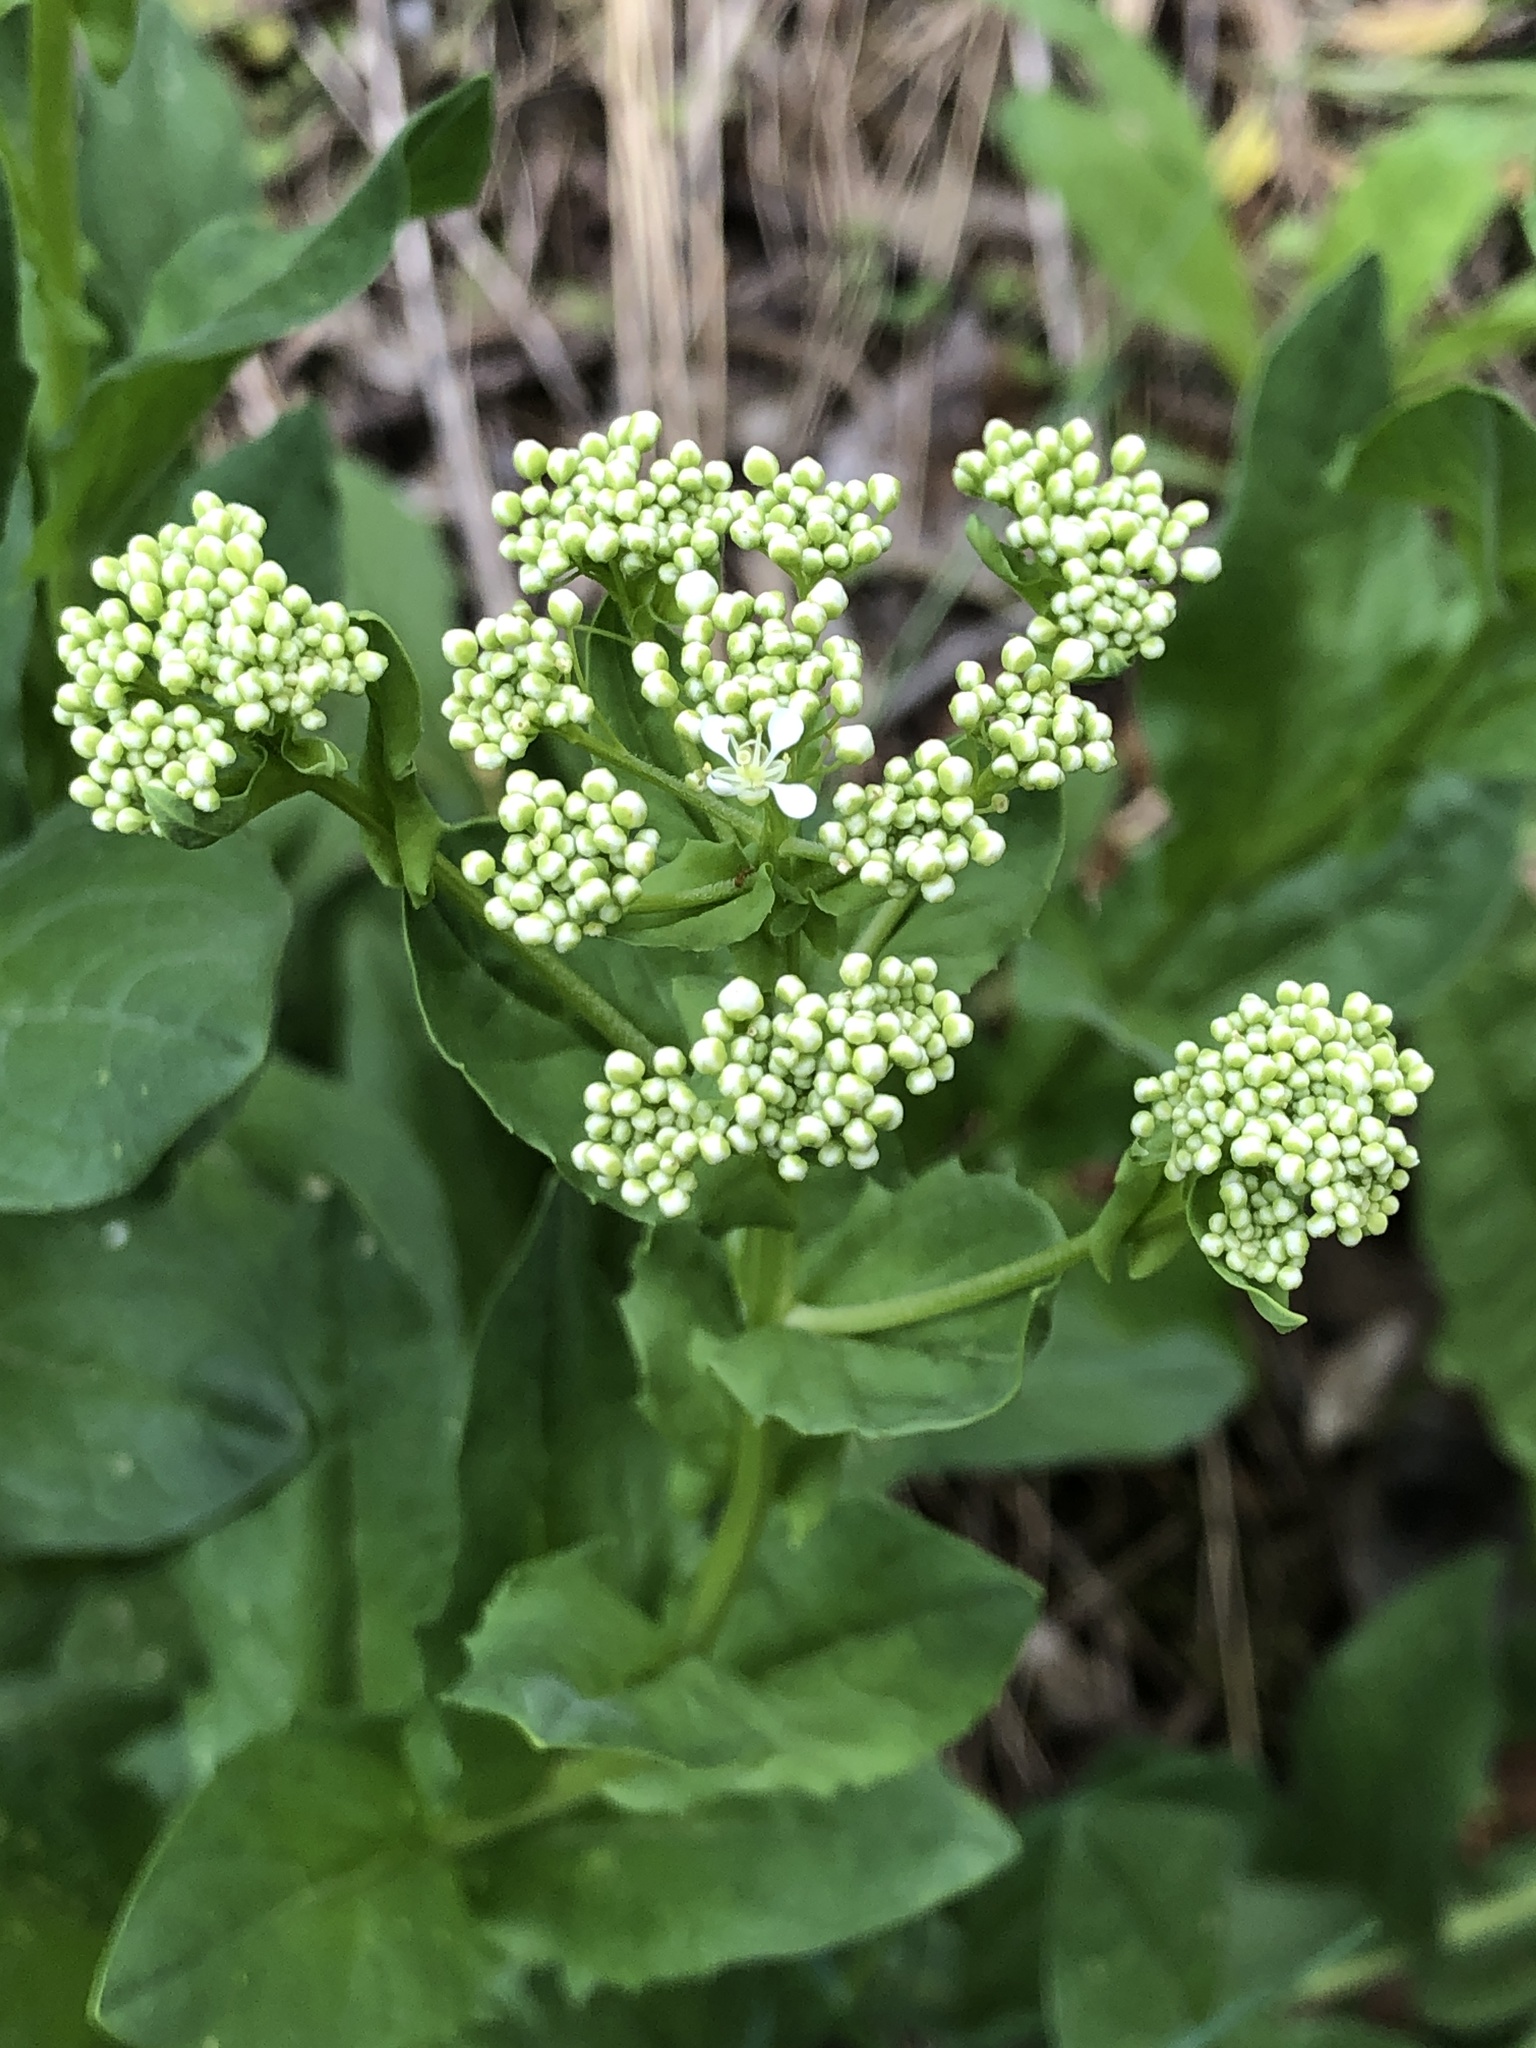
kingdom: Plantae
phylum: Tracheophyta
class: Magnoliopsida
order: Brassicales
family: Brassicaceae
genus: Lepidium
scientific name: Lepidium draba
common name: Hoary cress
